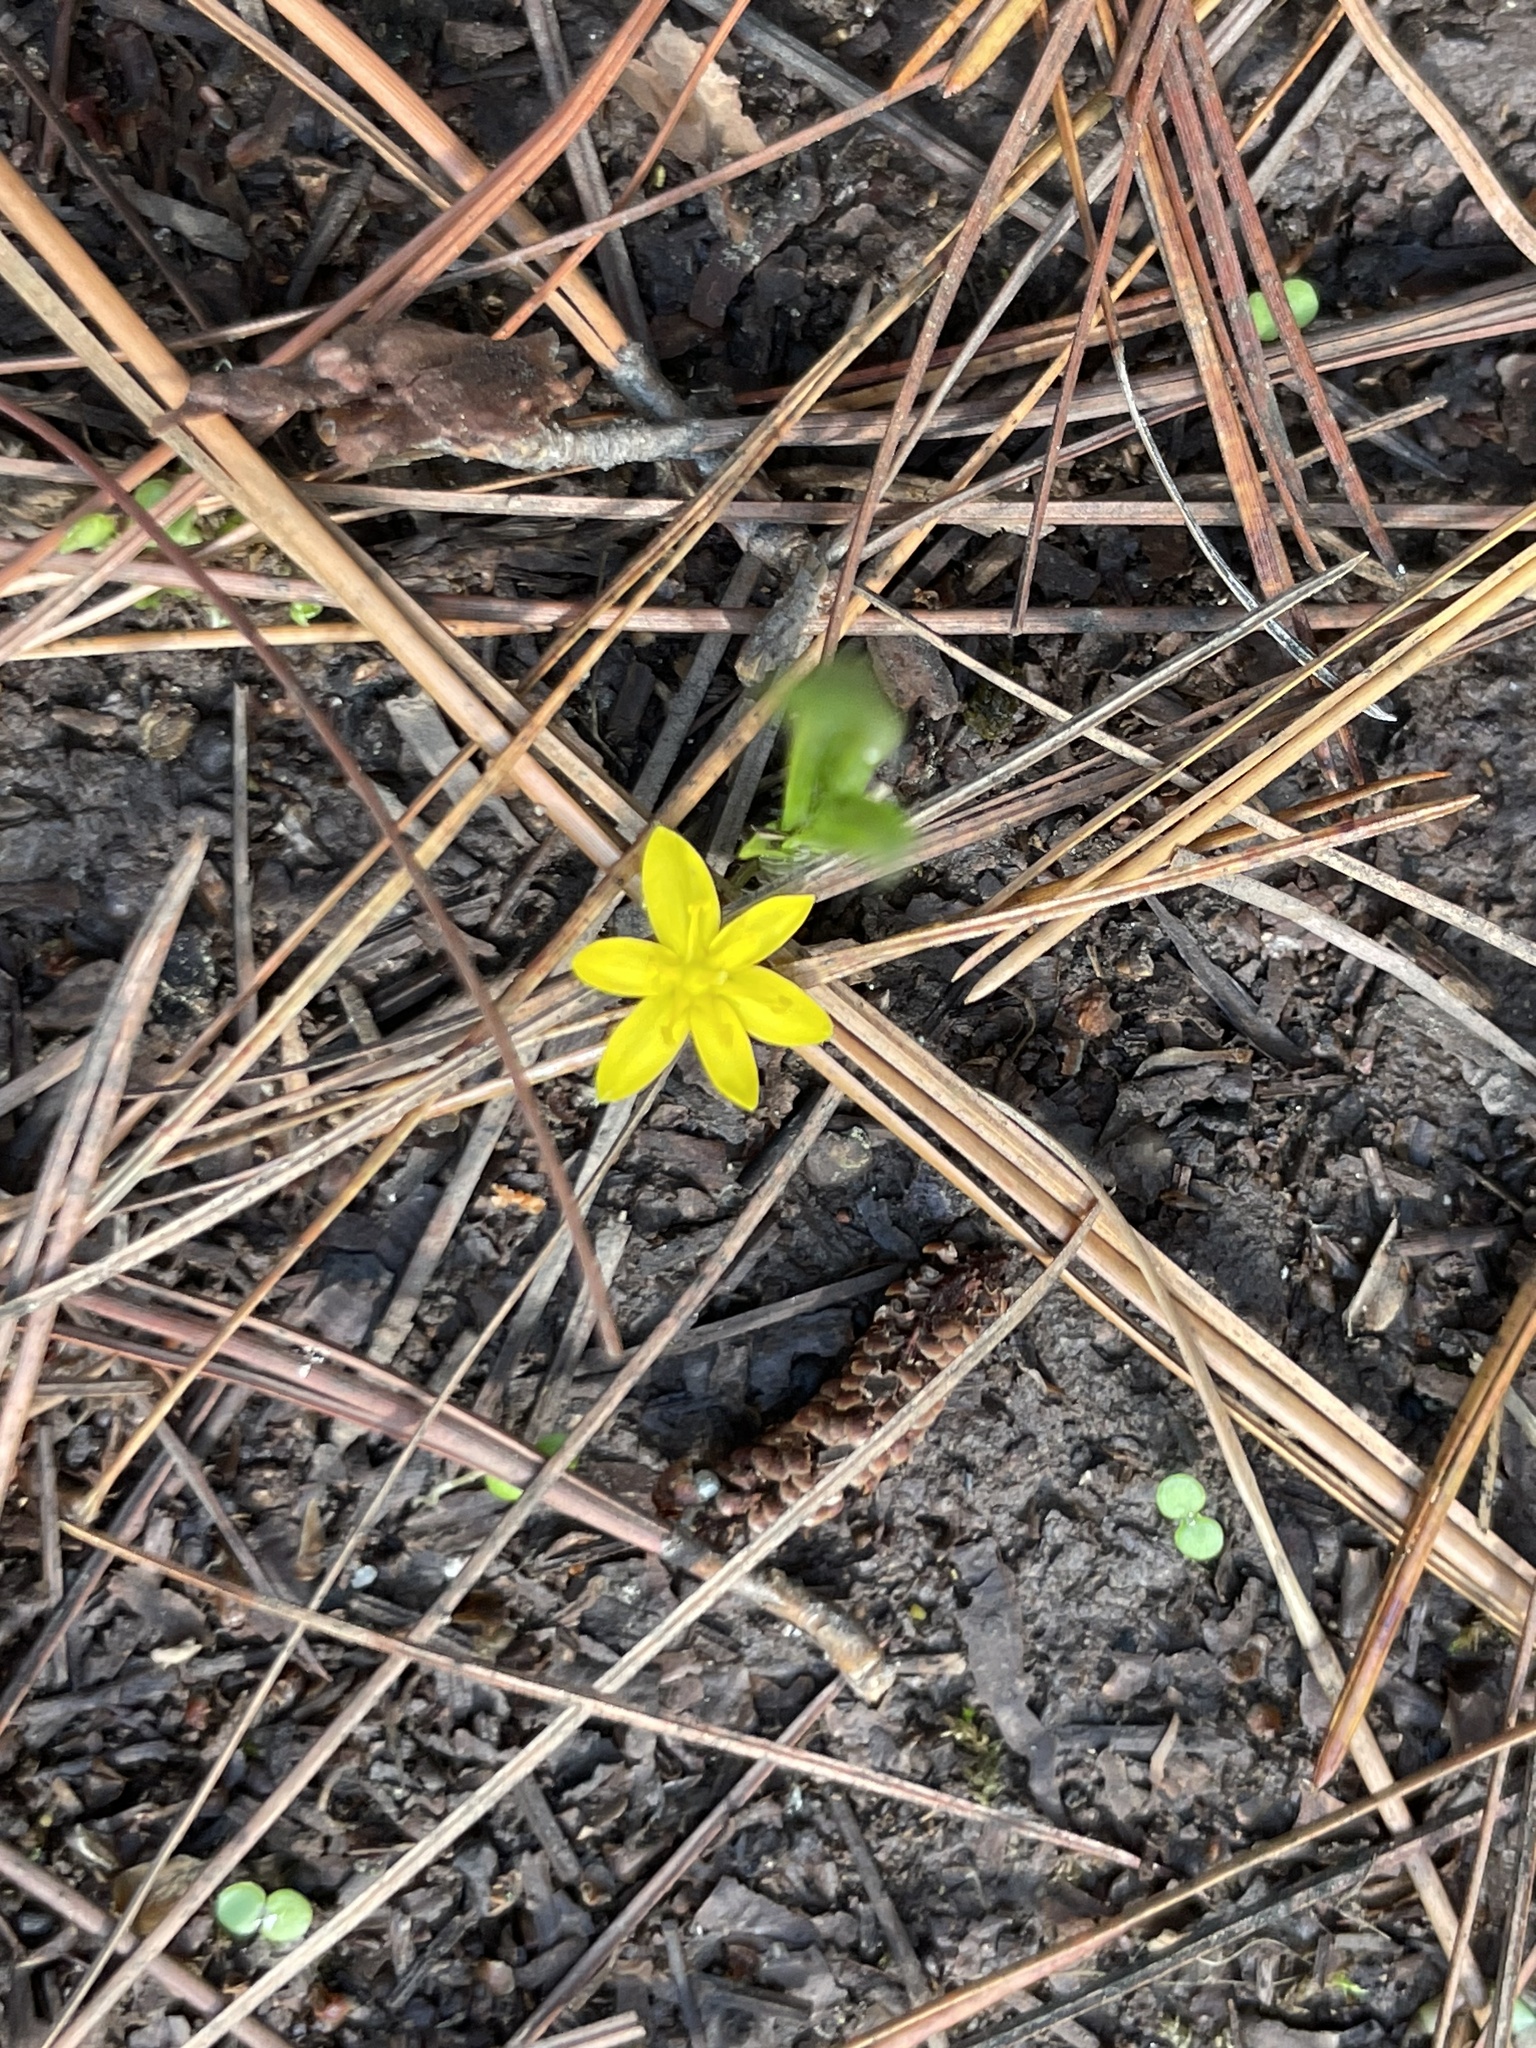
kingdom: Plantae
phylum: Tracheophyta
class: Liliopsida
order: Asparagales
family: Hypoxidaceae
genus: Hypoxis
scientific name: Hypoxis decumbens
